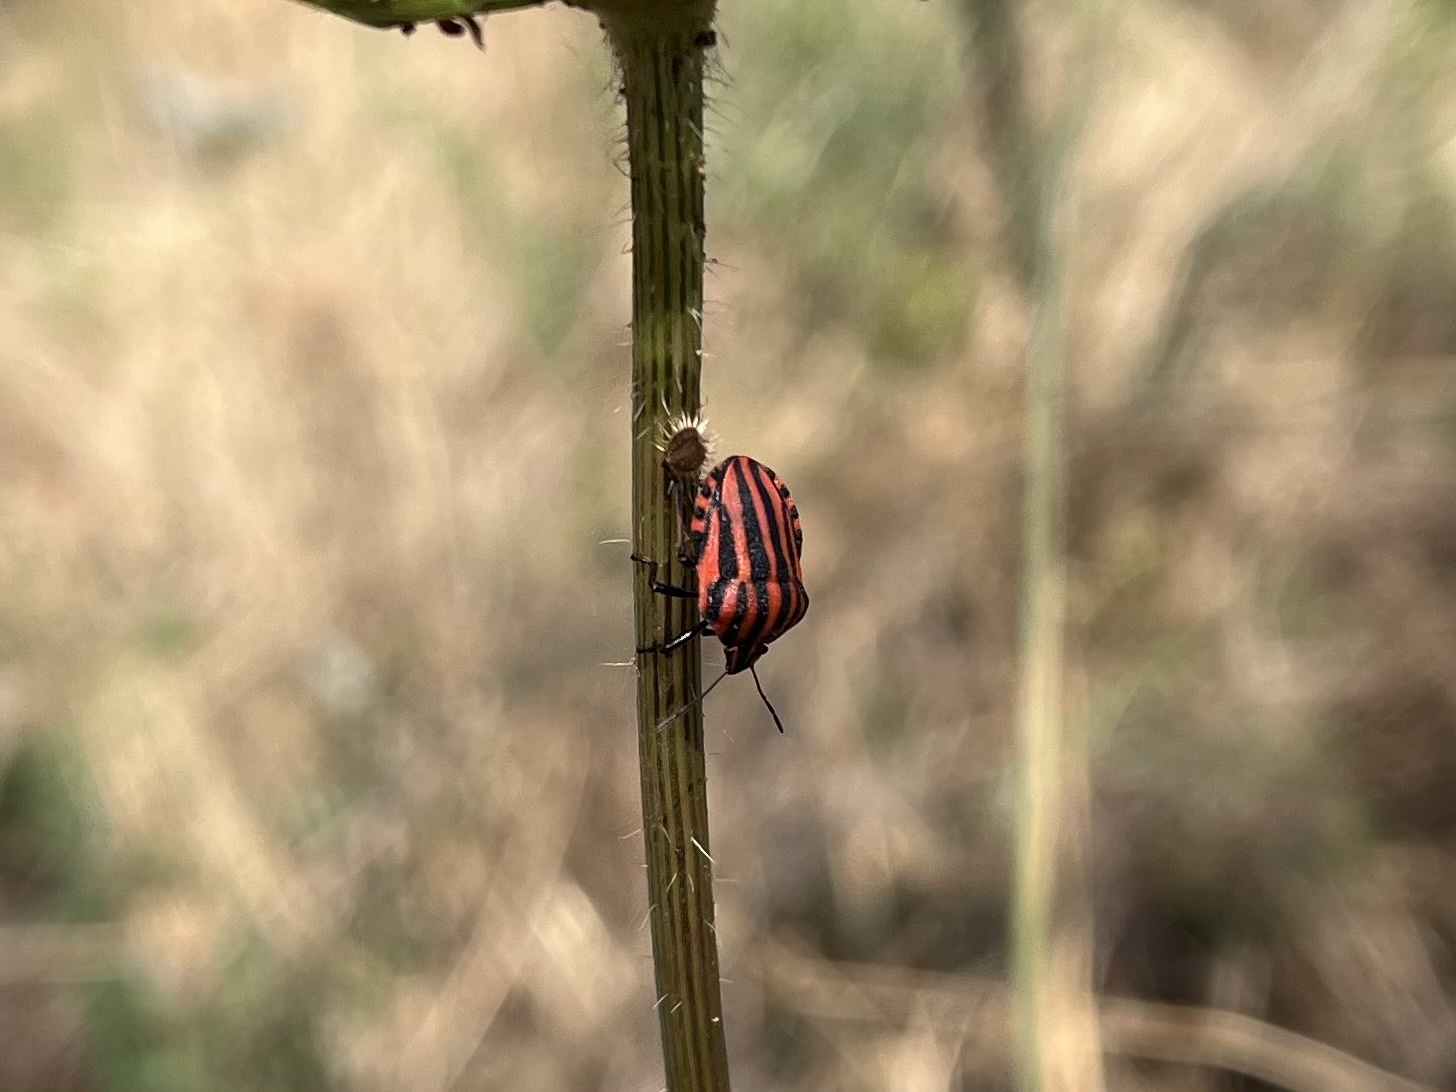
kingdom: Animalia
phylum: Arthropoda
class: Insecta
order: Hemiptera
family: Pentatomidae
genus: Graphosoma
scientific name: Graphosoma italicum
